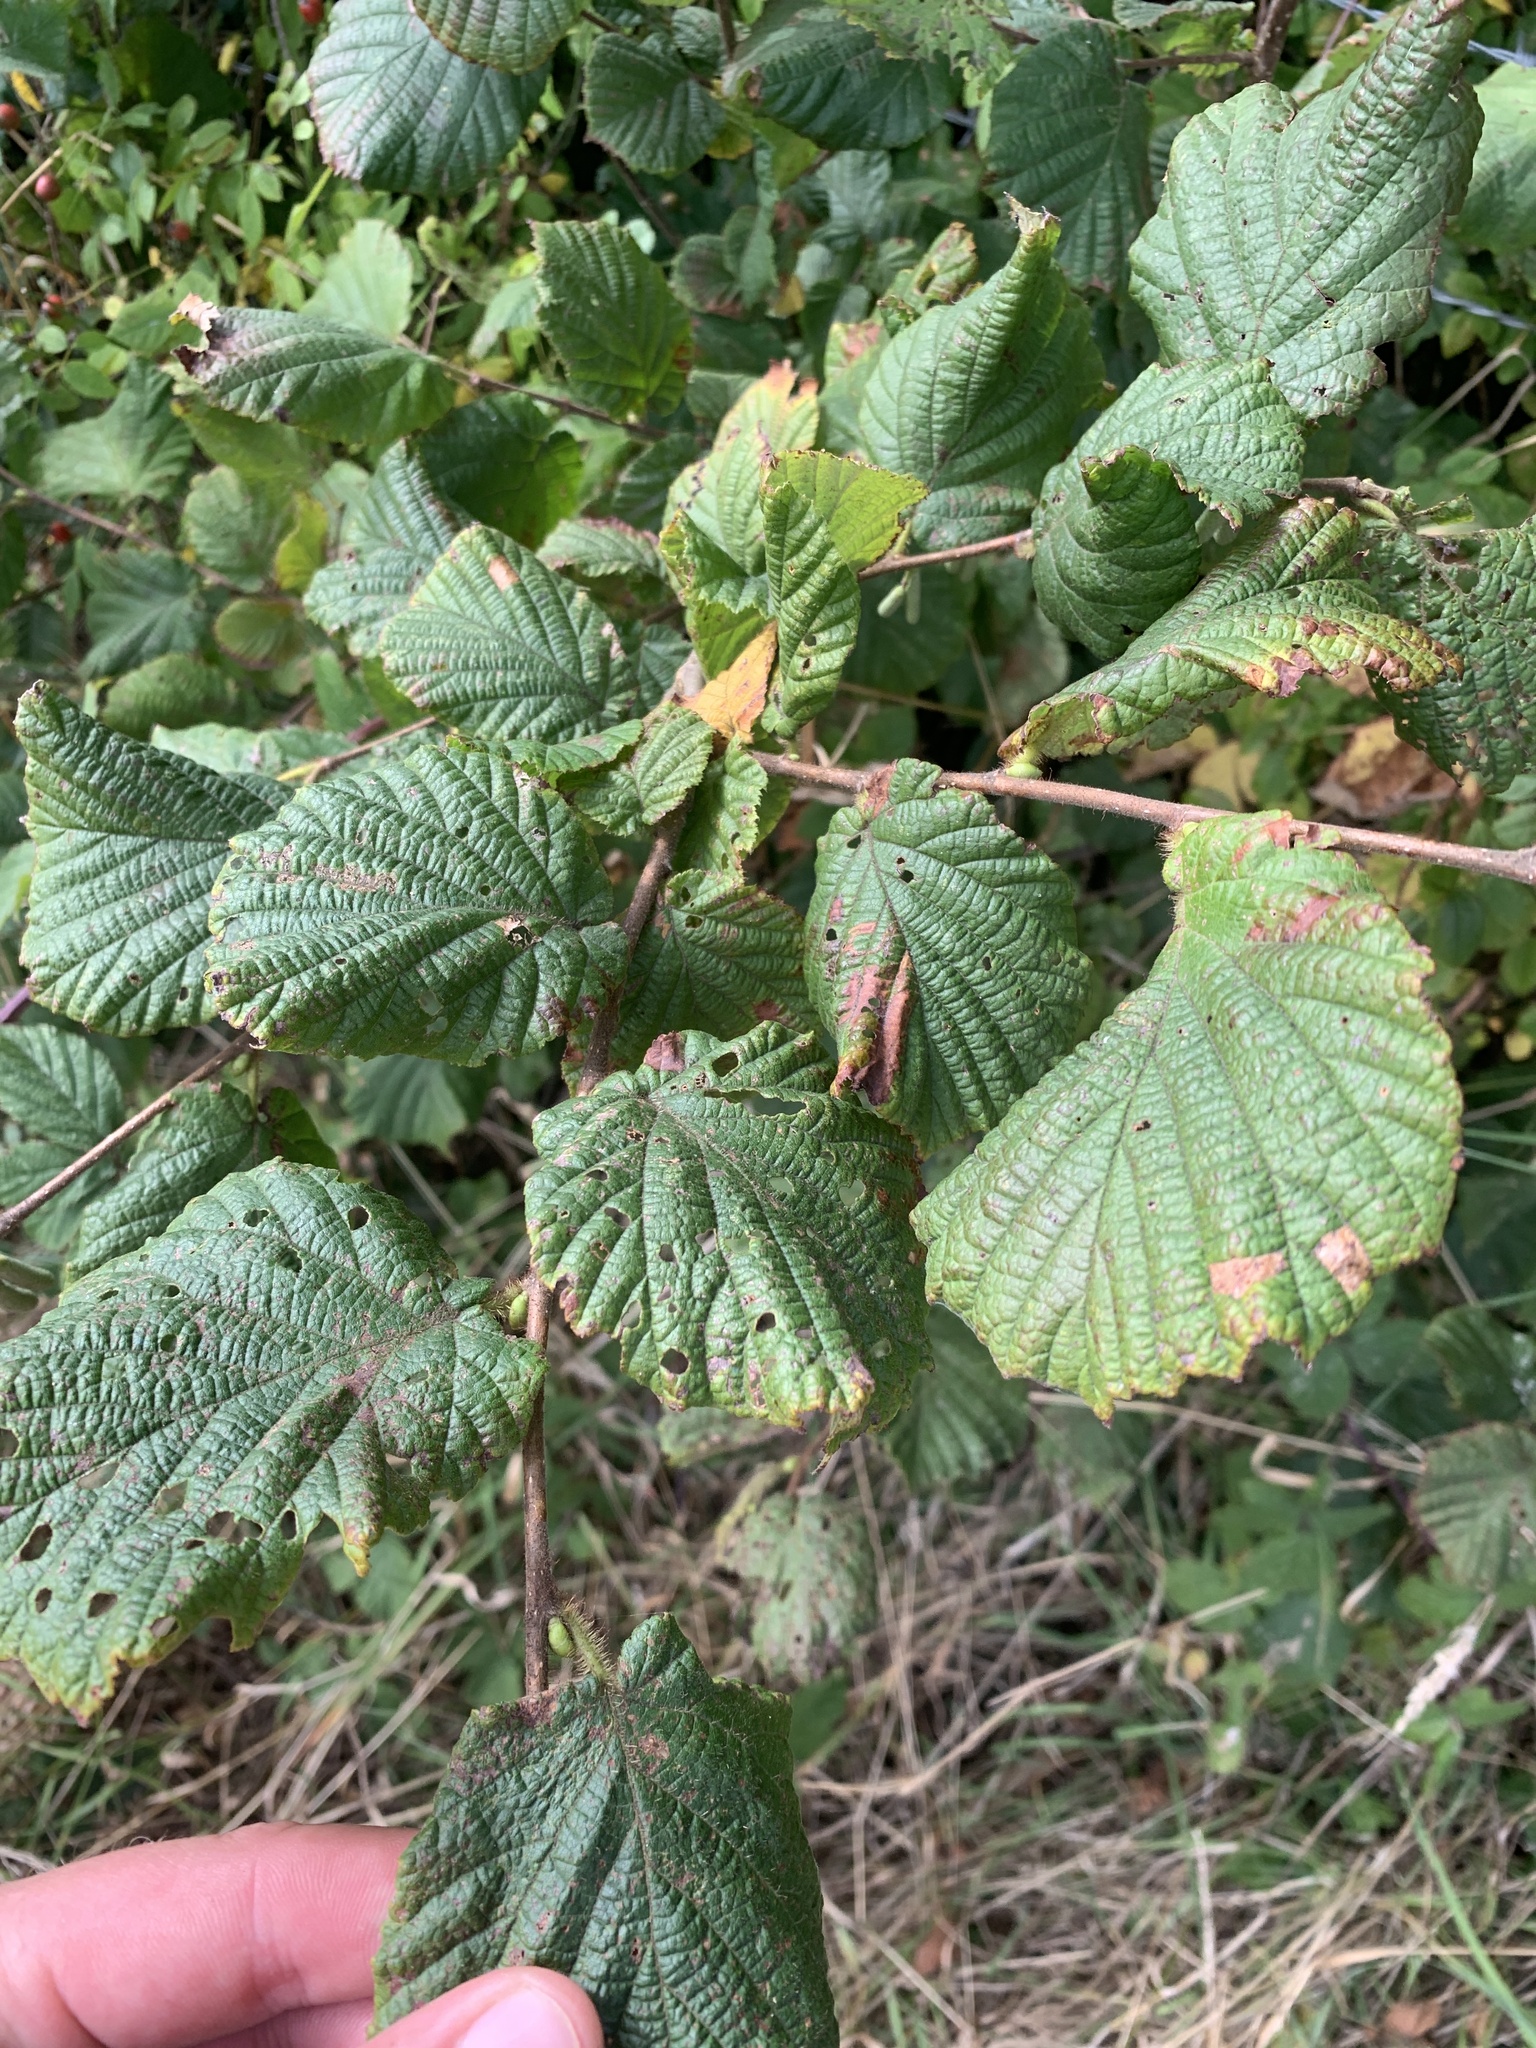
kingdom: Plantae
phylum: Tracheophyta
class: Magnoliopsida
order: Fagales
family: Betulaceae
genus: Corylus
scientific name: Corylus avellana
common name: European hazel
